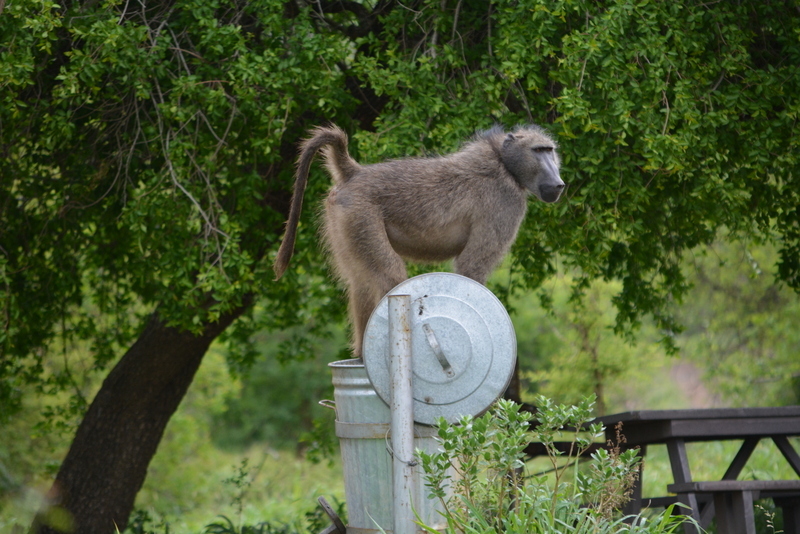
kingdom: Animalia
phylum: Chordata
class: Mammalia
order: Primates
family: Cercopithecidae
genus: Papio
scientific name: Papio ursinus
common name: Chacma baboon
